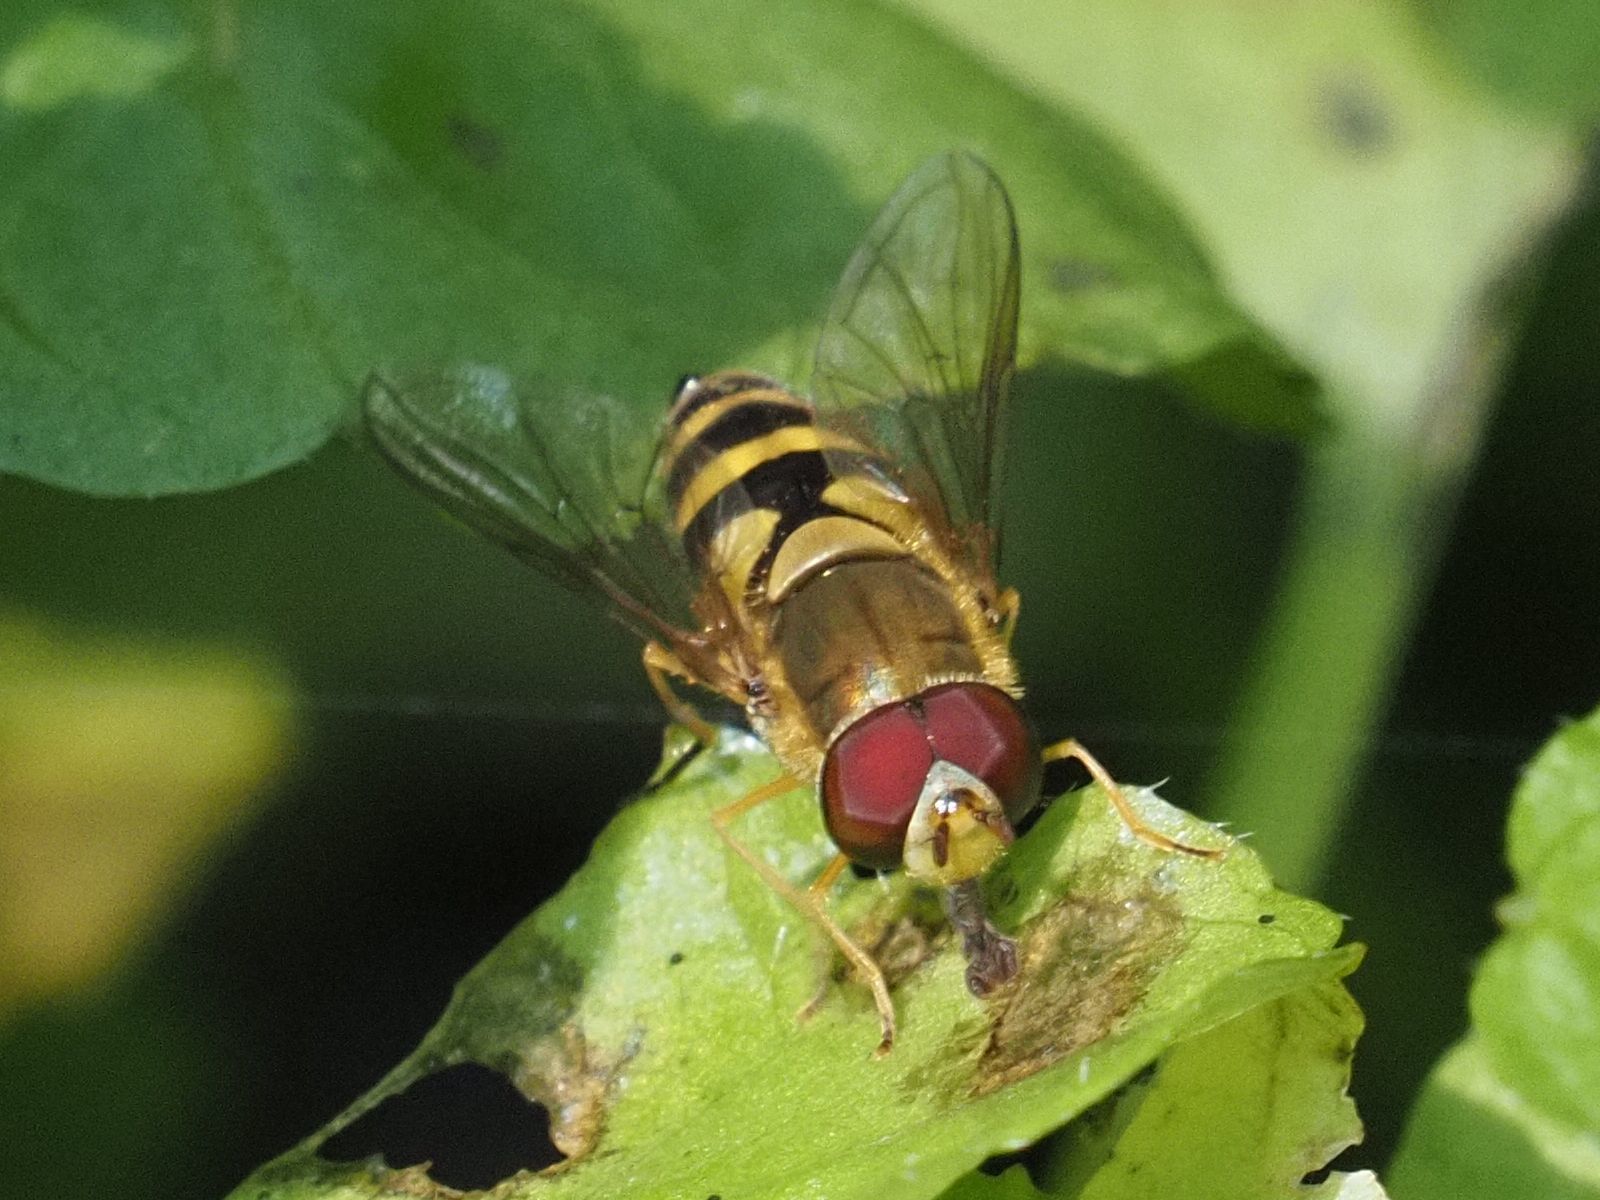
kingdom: Animalia
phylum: Arthropoda
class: Insecta
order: Diptera
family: Syrphidae
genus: Syrphus
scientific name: Syrphus
